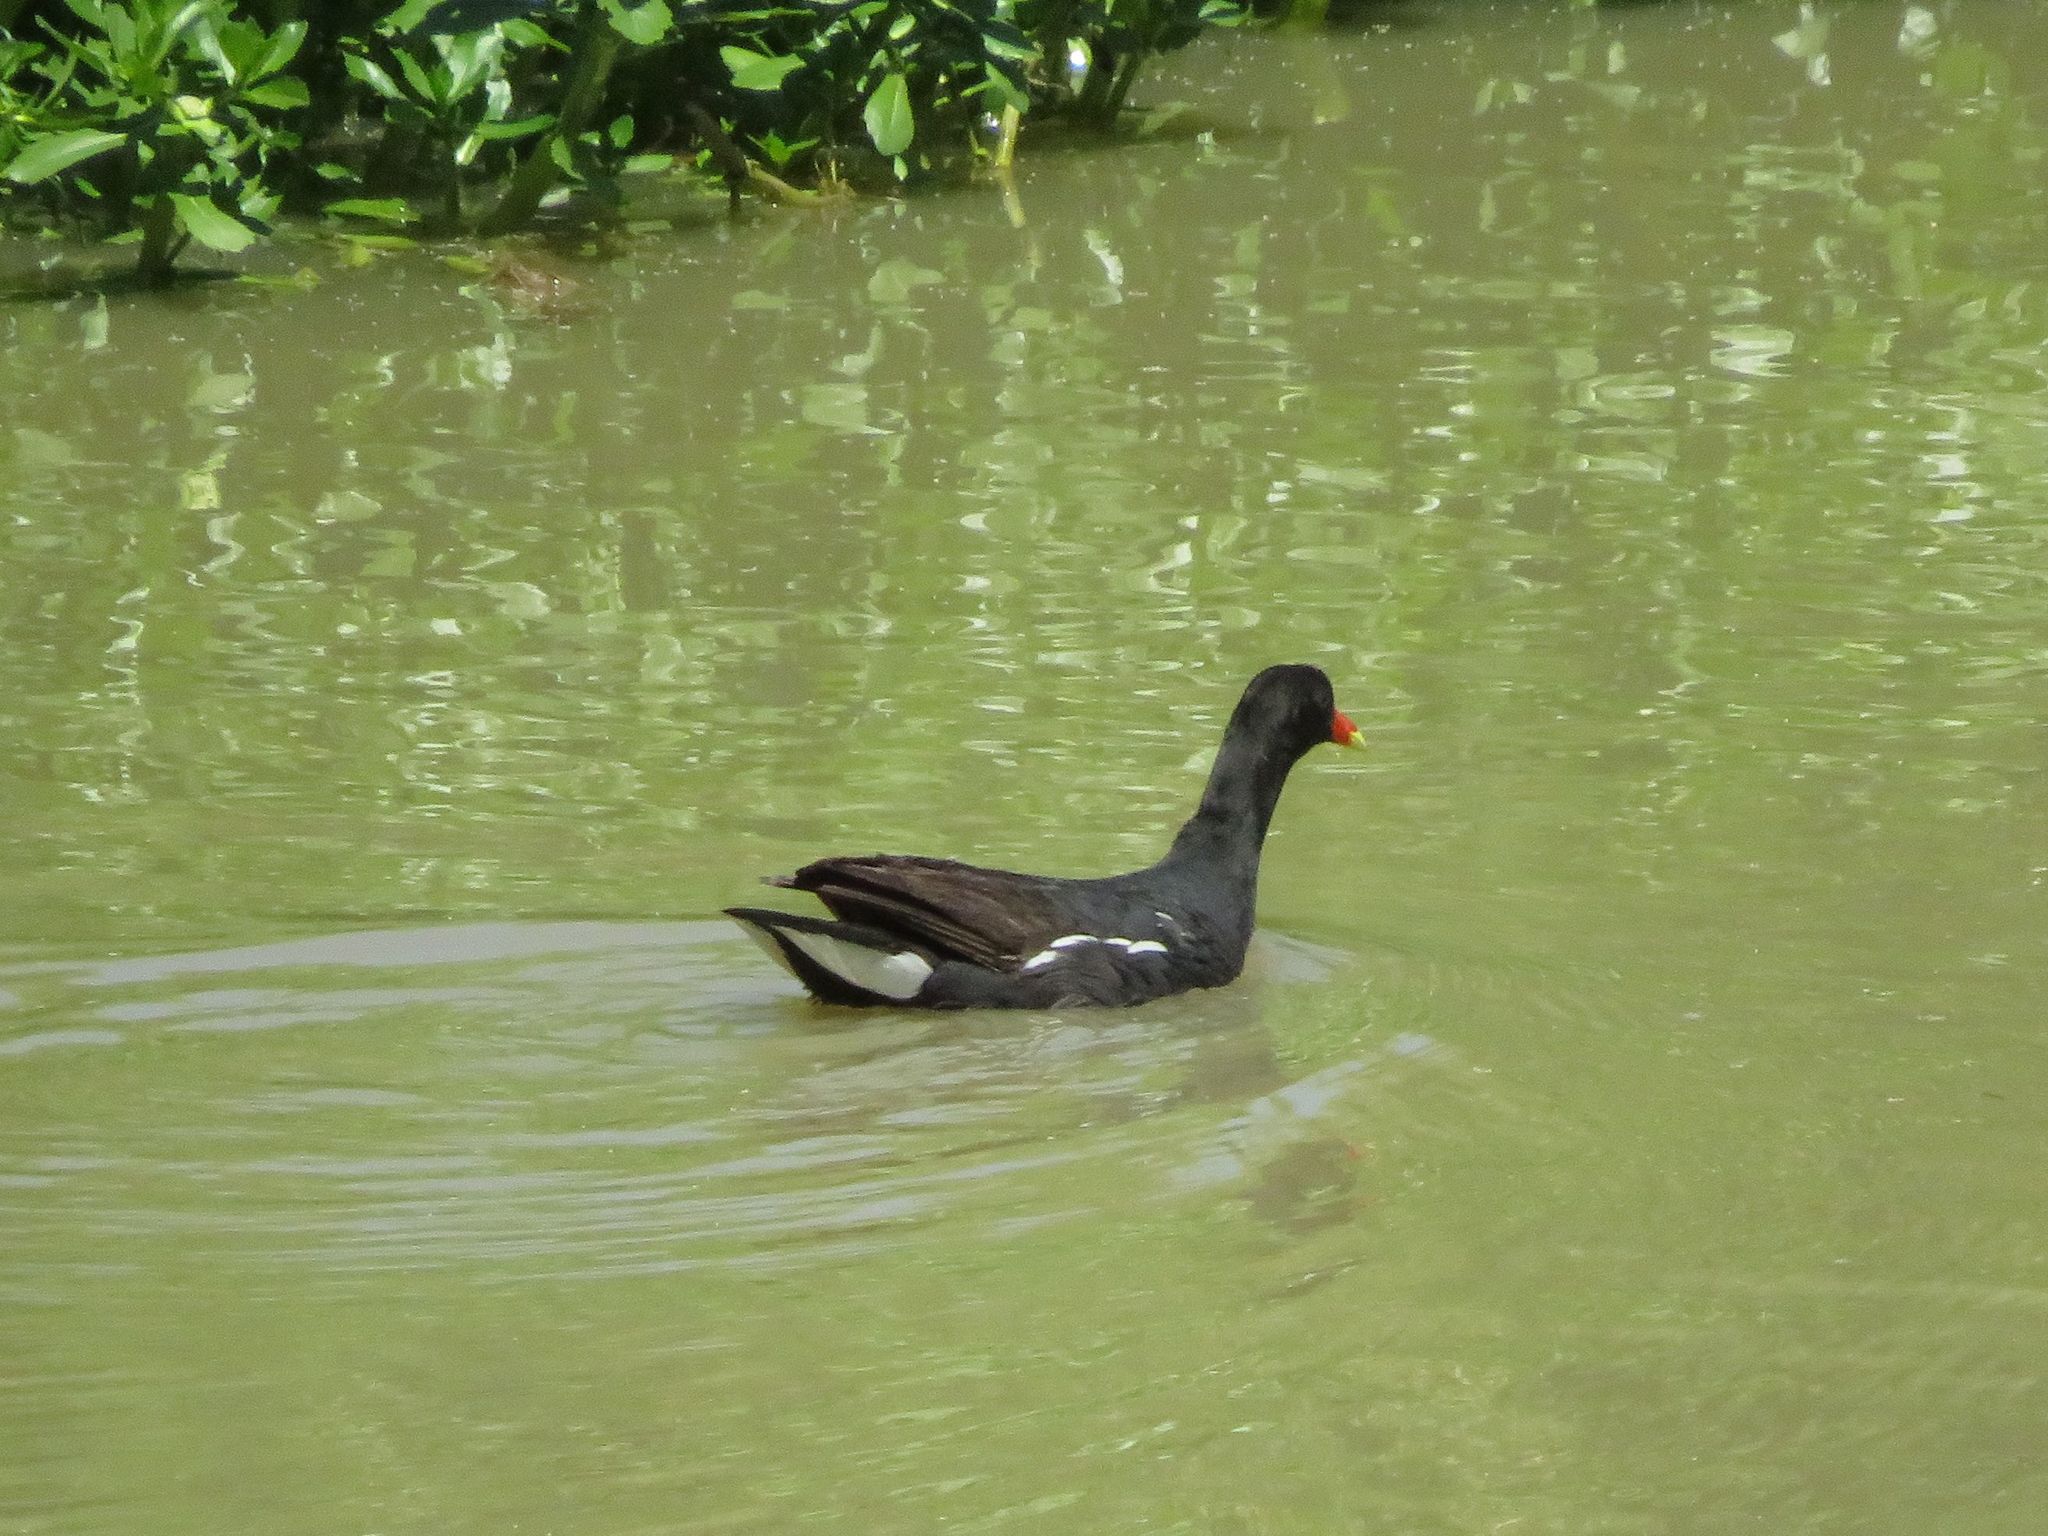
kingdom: Animalia
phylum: Chordata
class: Aves
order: Gruiformes
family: Rallidae
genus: Gallinula
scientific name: Gallinula chloropus
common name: Common moorhen
